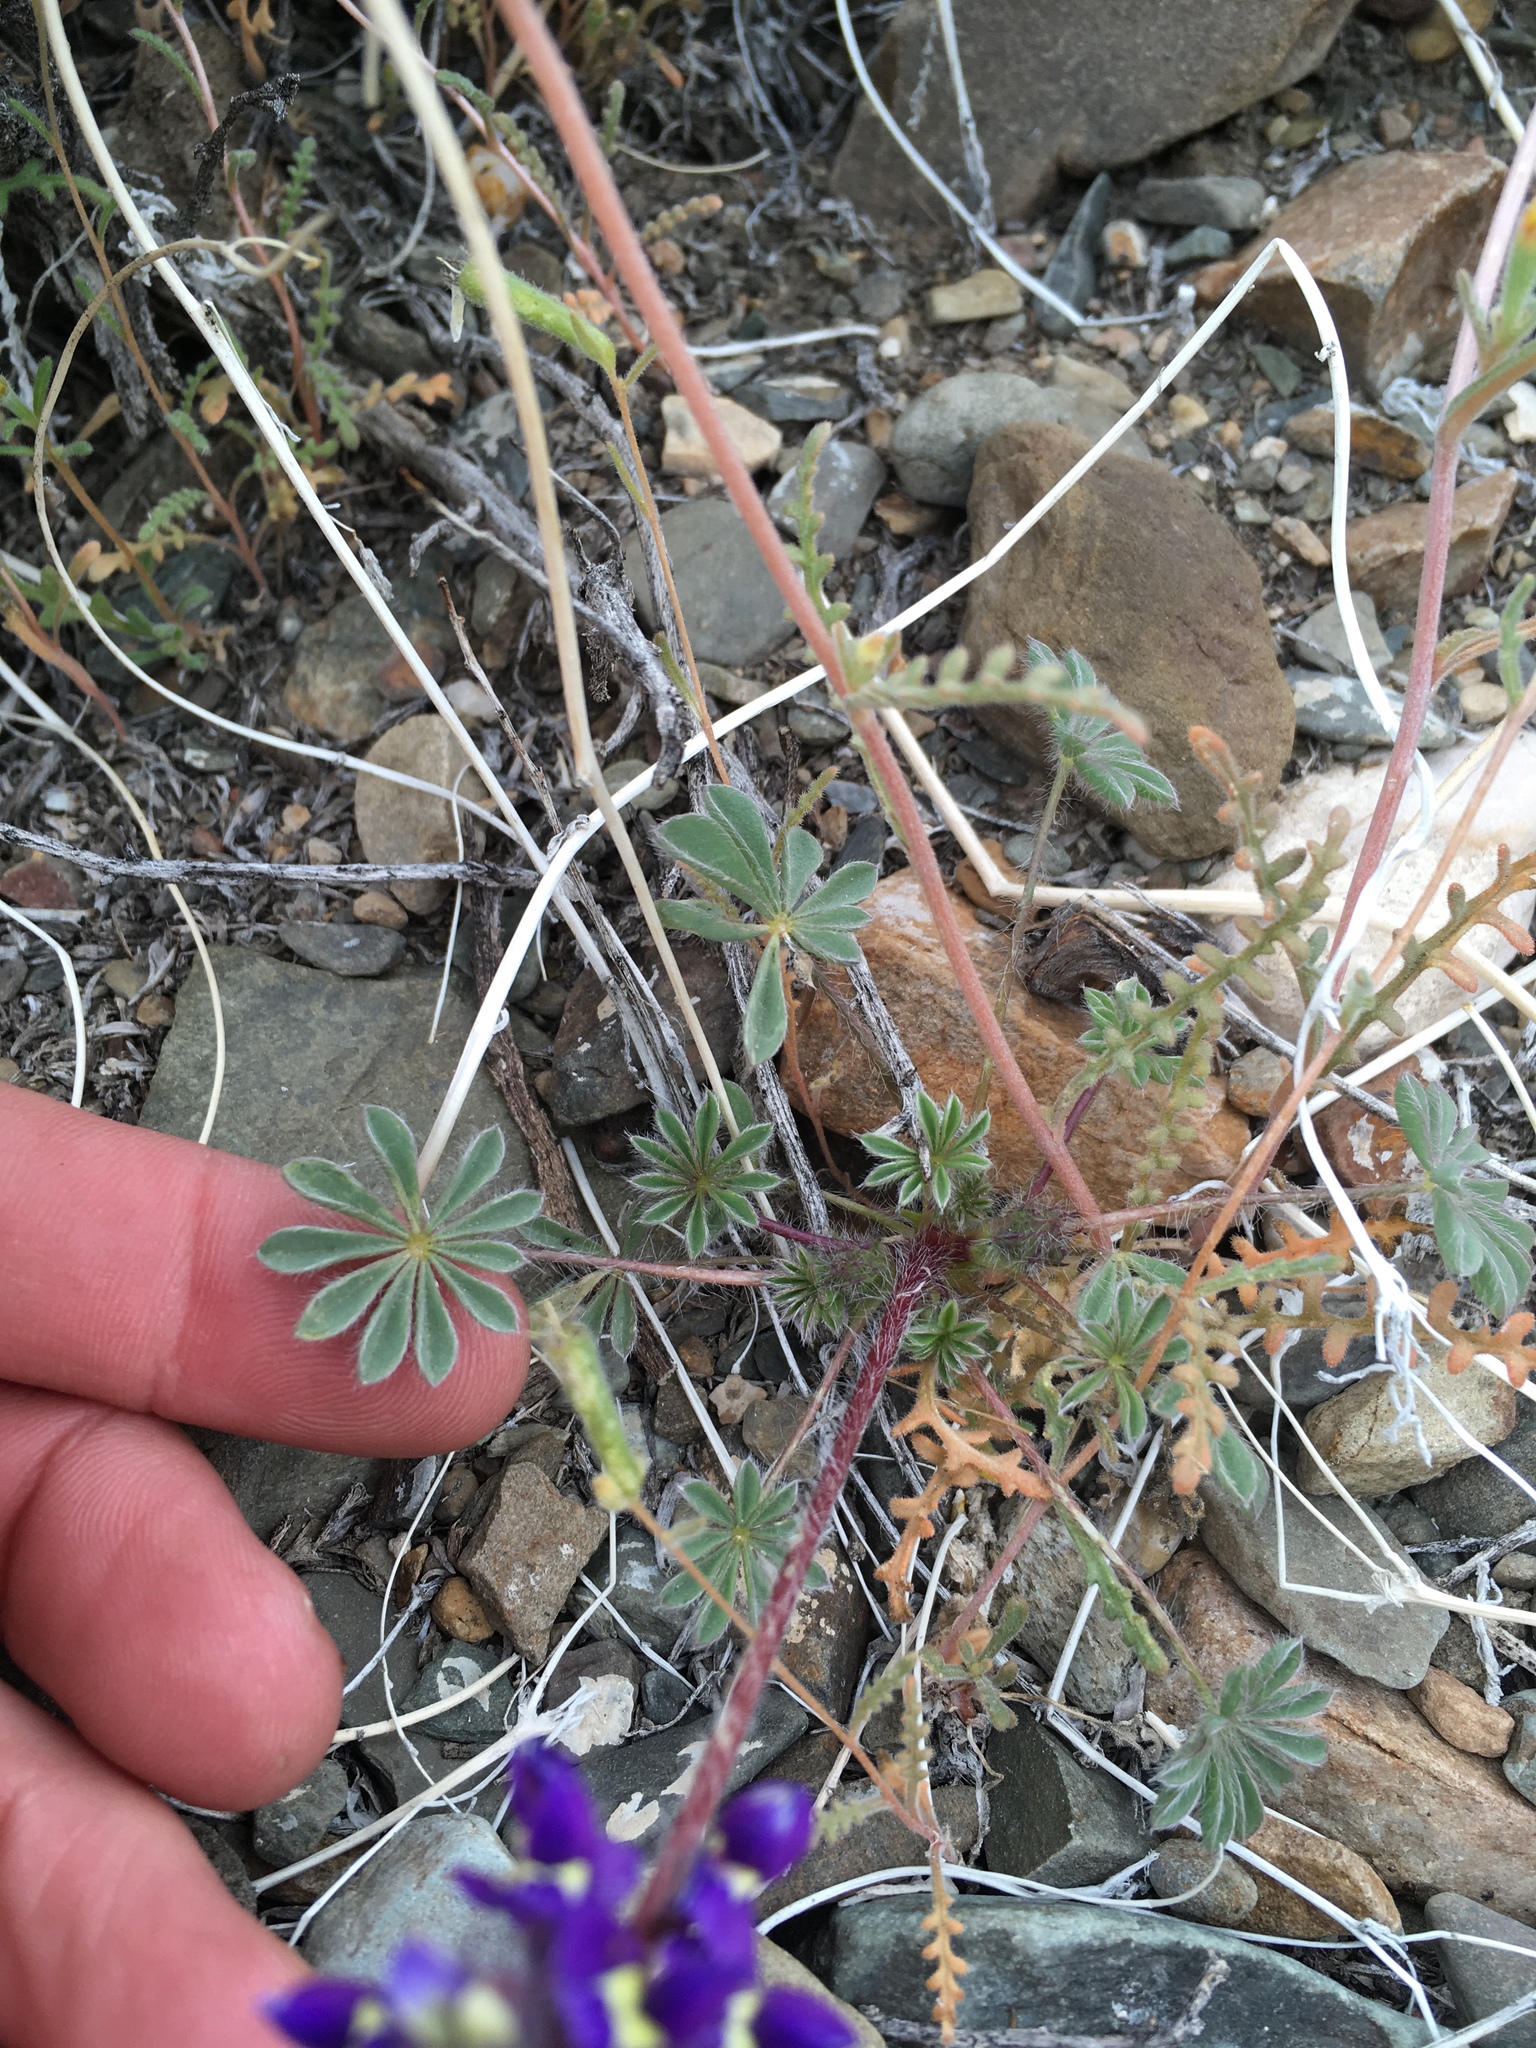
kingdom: Plantae
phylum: Tracheophyta
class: Magnoliopsida
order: Fabales
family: Fabaceae
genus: Lupinus
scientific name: Lupinus flavoculatus
